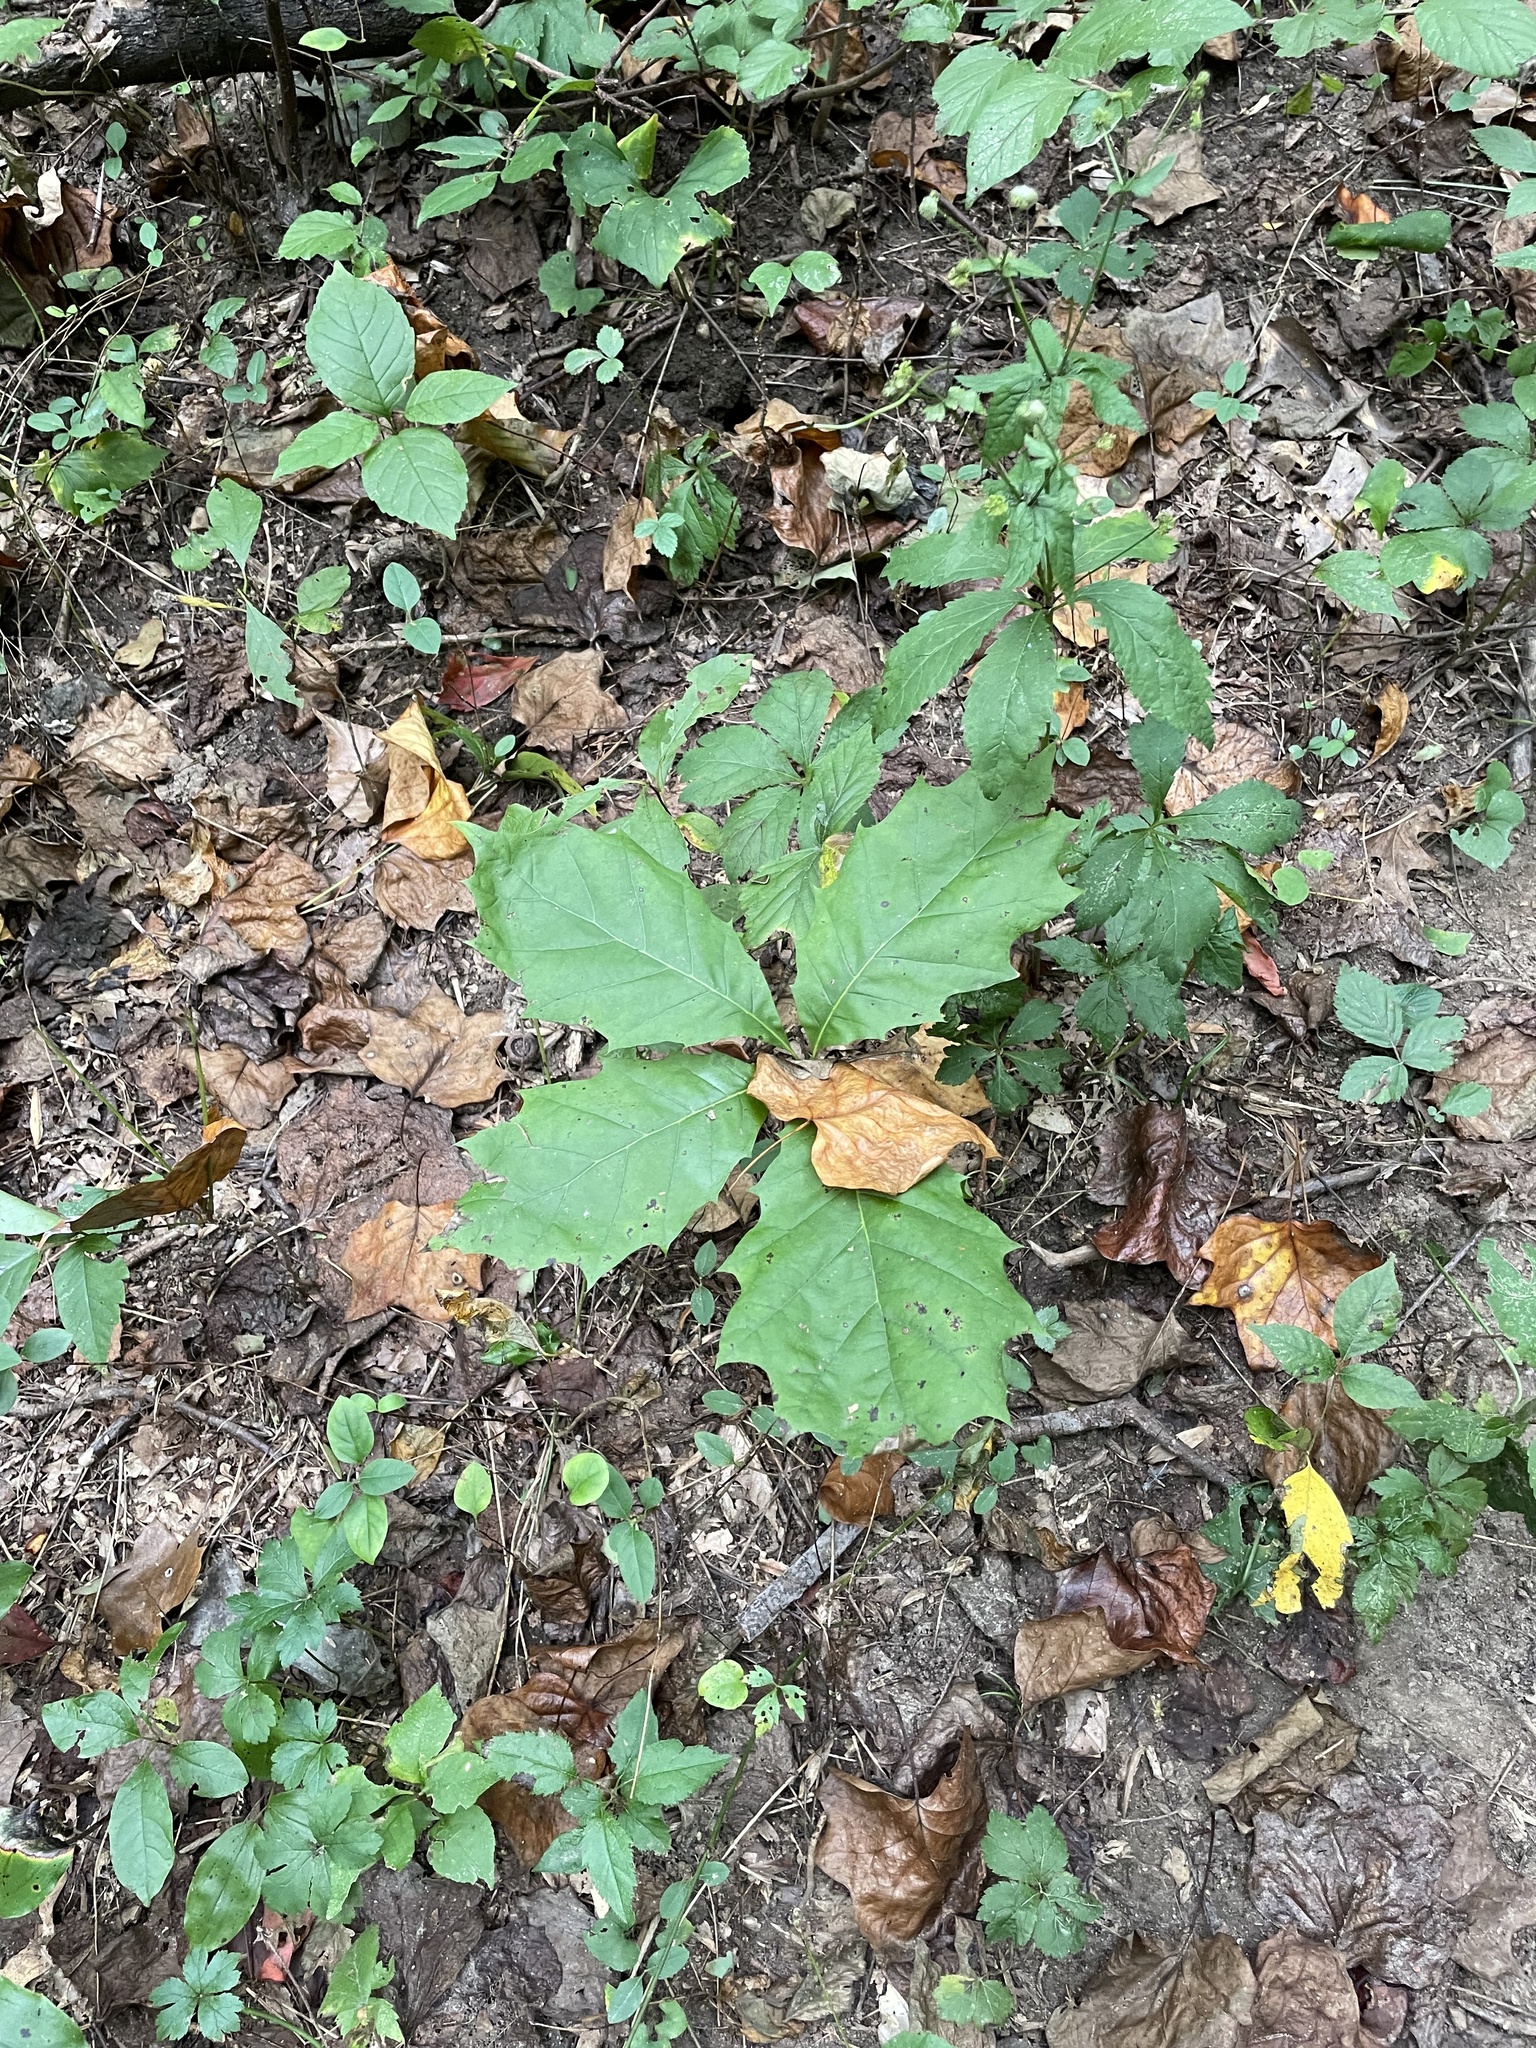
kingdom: Plantae
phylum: Tracheophyta
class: Magnoliopsida
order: Fagales
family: Fagaceae
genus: Quercus
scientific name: Quercus rubra
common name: Red oak
